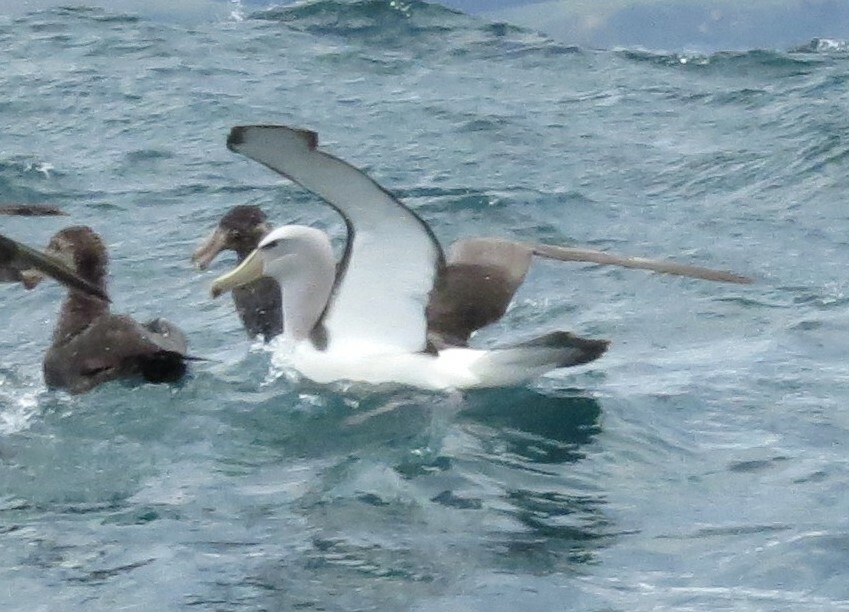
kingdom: Animalia
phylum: Chordata
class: Aves
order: Procellariiformes
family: Diomedeidae
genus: Thalassarche
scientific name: Thalassarche salvini
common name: Salvin's albatross
